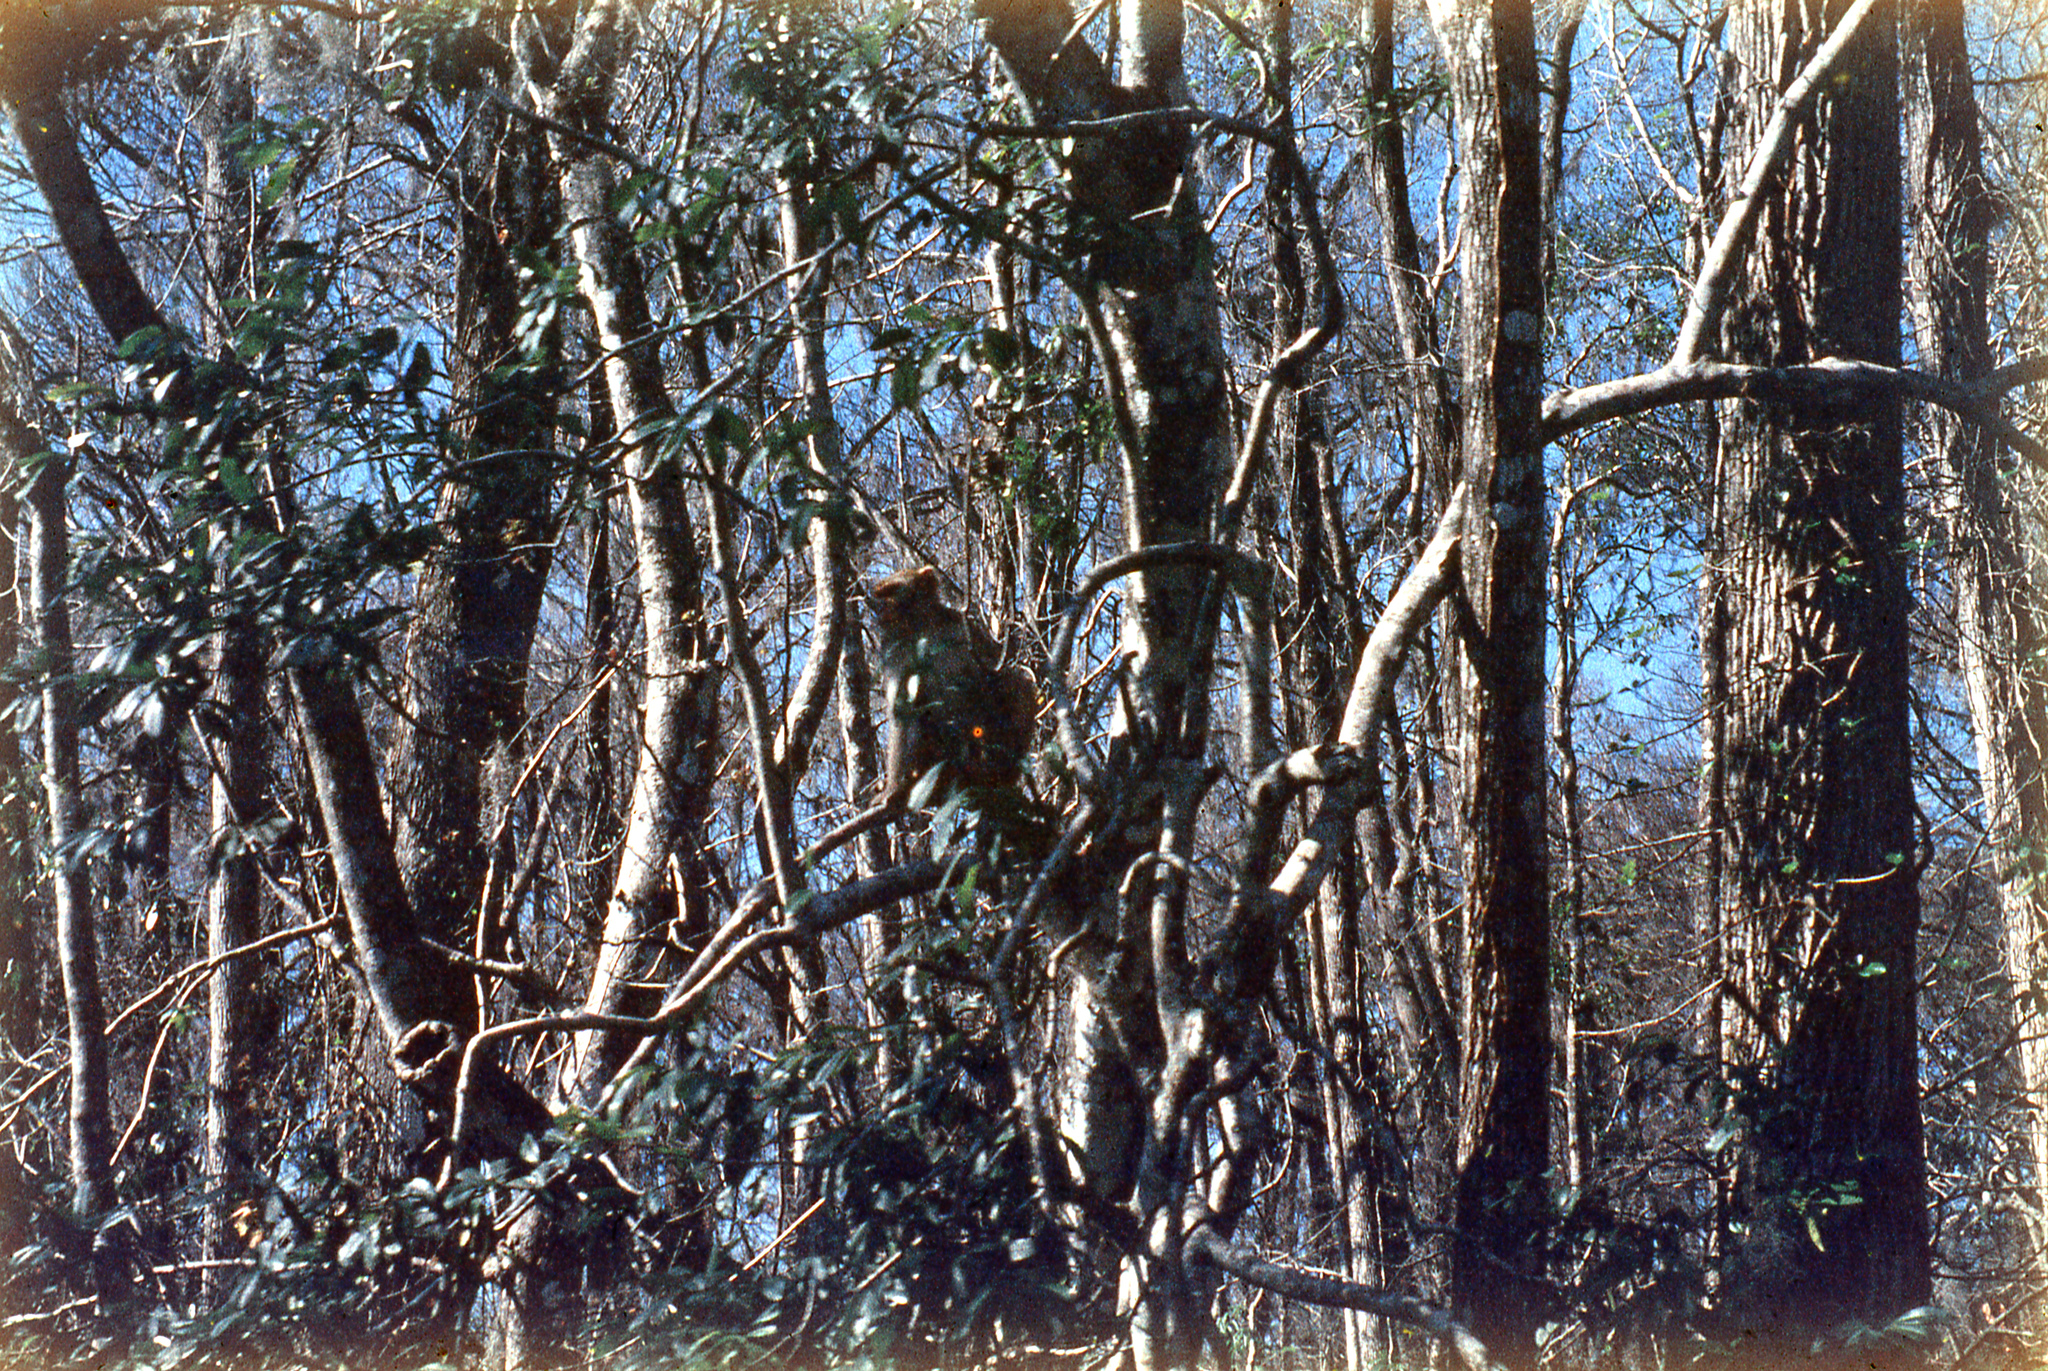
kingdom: Animalia
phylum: Chordata
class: Mammalia
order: Primates
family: Cercopithecidae
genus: Macaca
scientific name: Macaca mulatta
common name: Rhesus monkey
